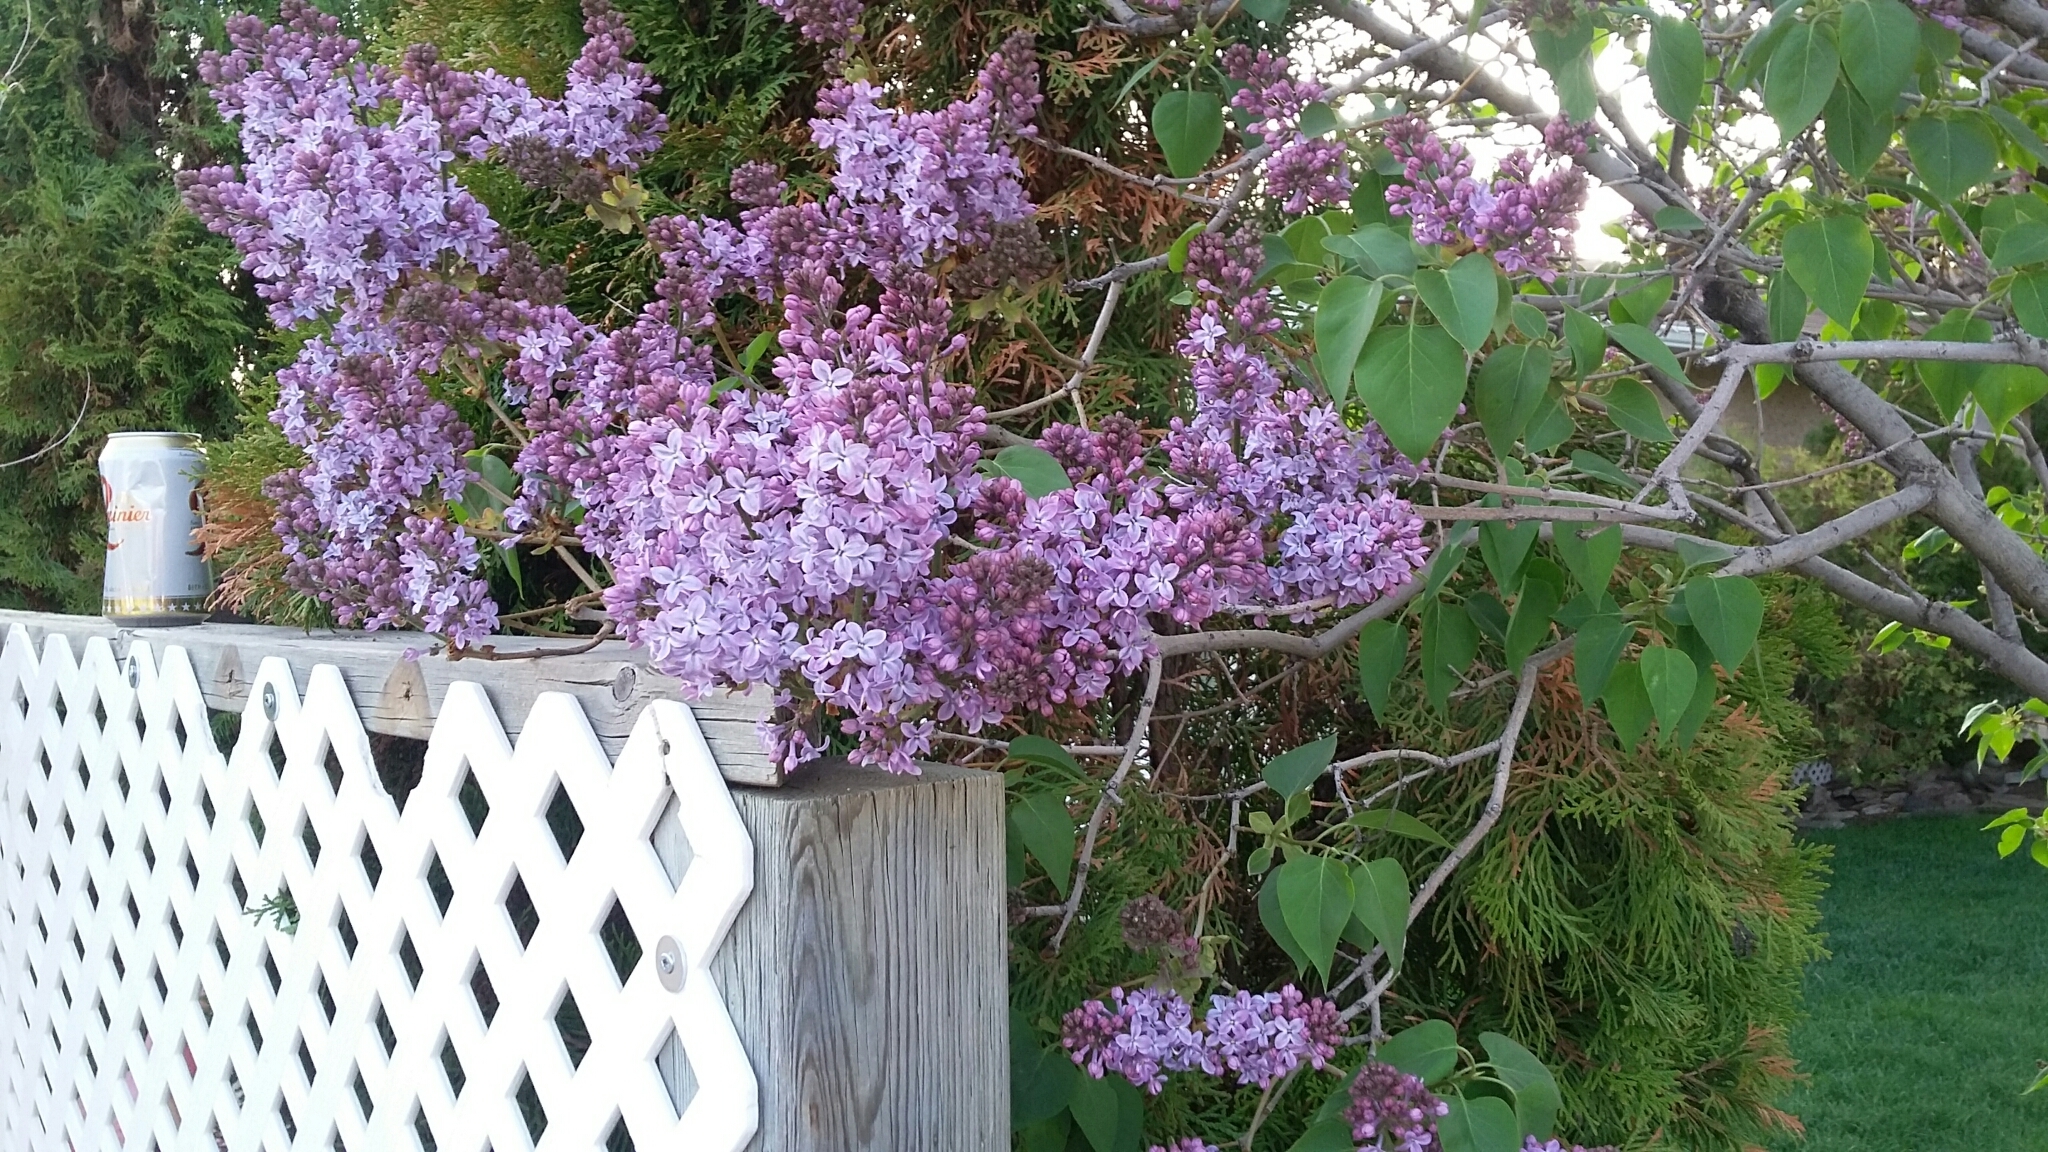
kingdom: Plantae
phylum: Tracheophyta
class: Magnoliopsida
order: Lamiales
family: Oleaceae
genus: Syringa
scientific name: Syringa vulgaris
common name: Common lilac
